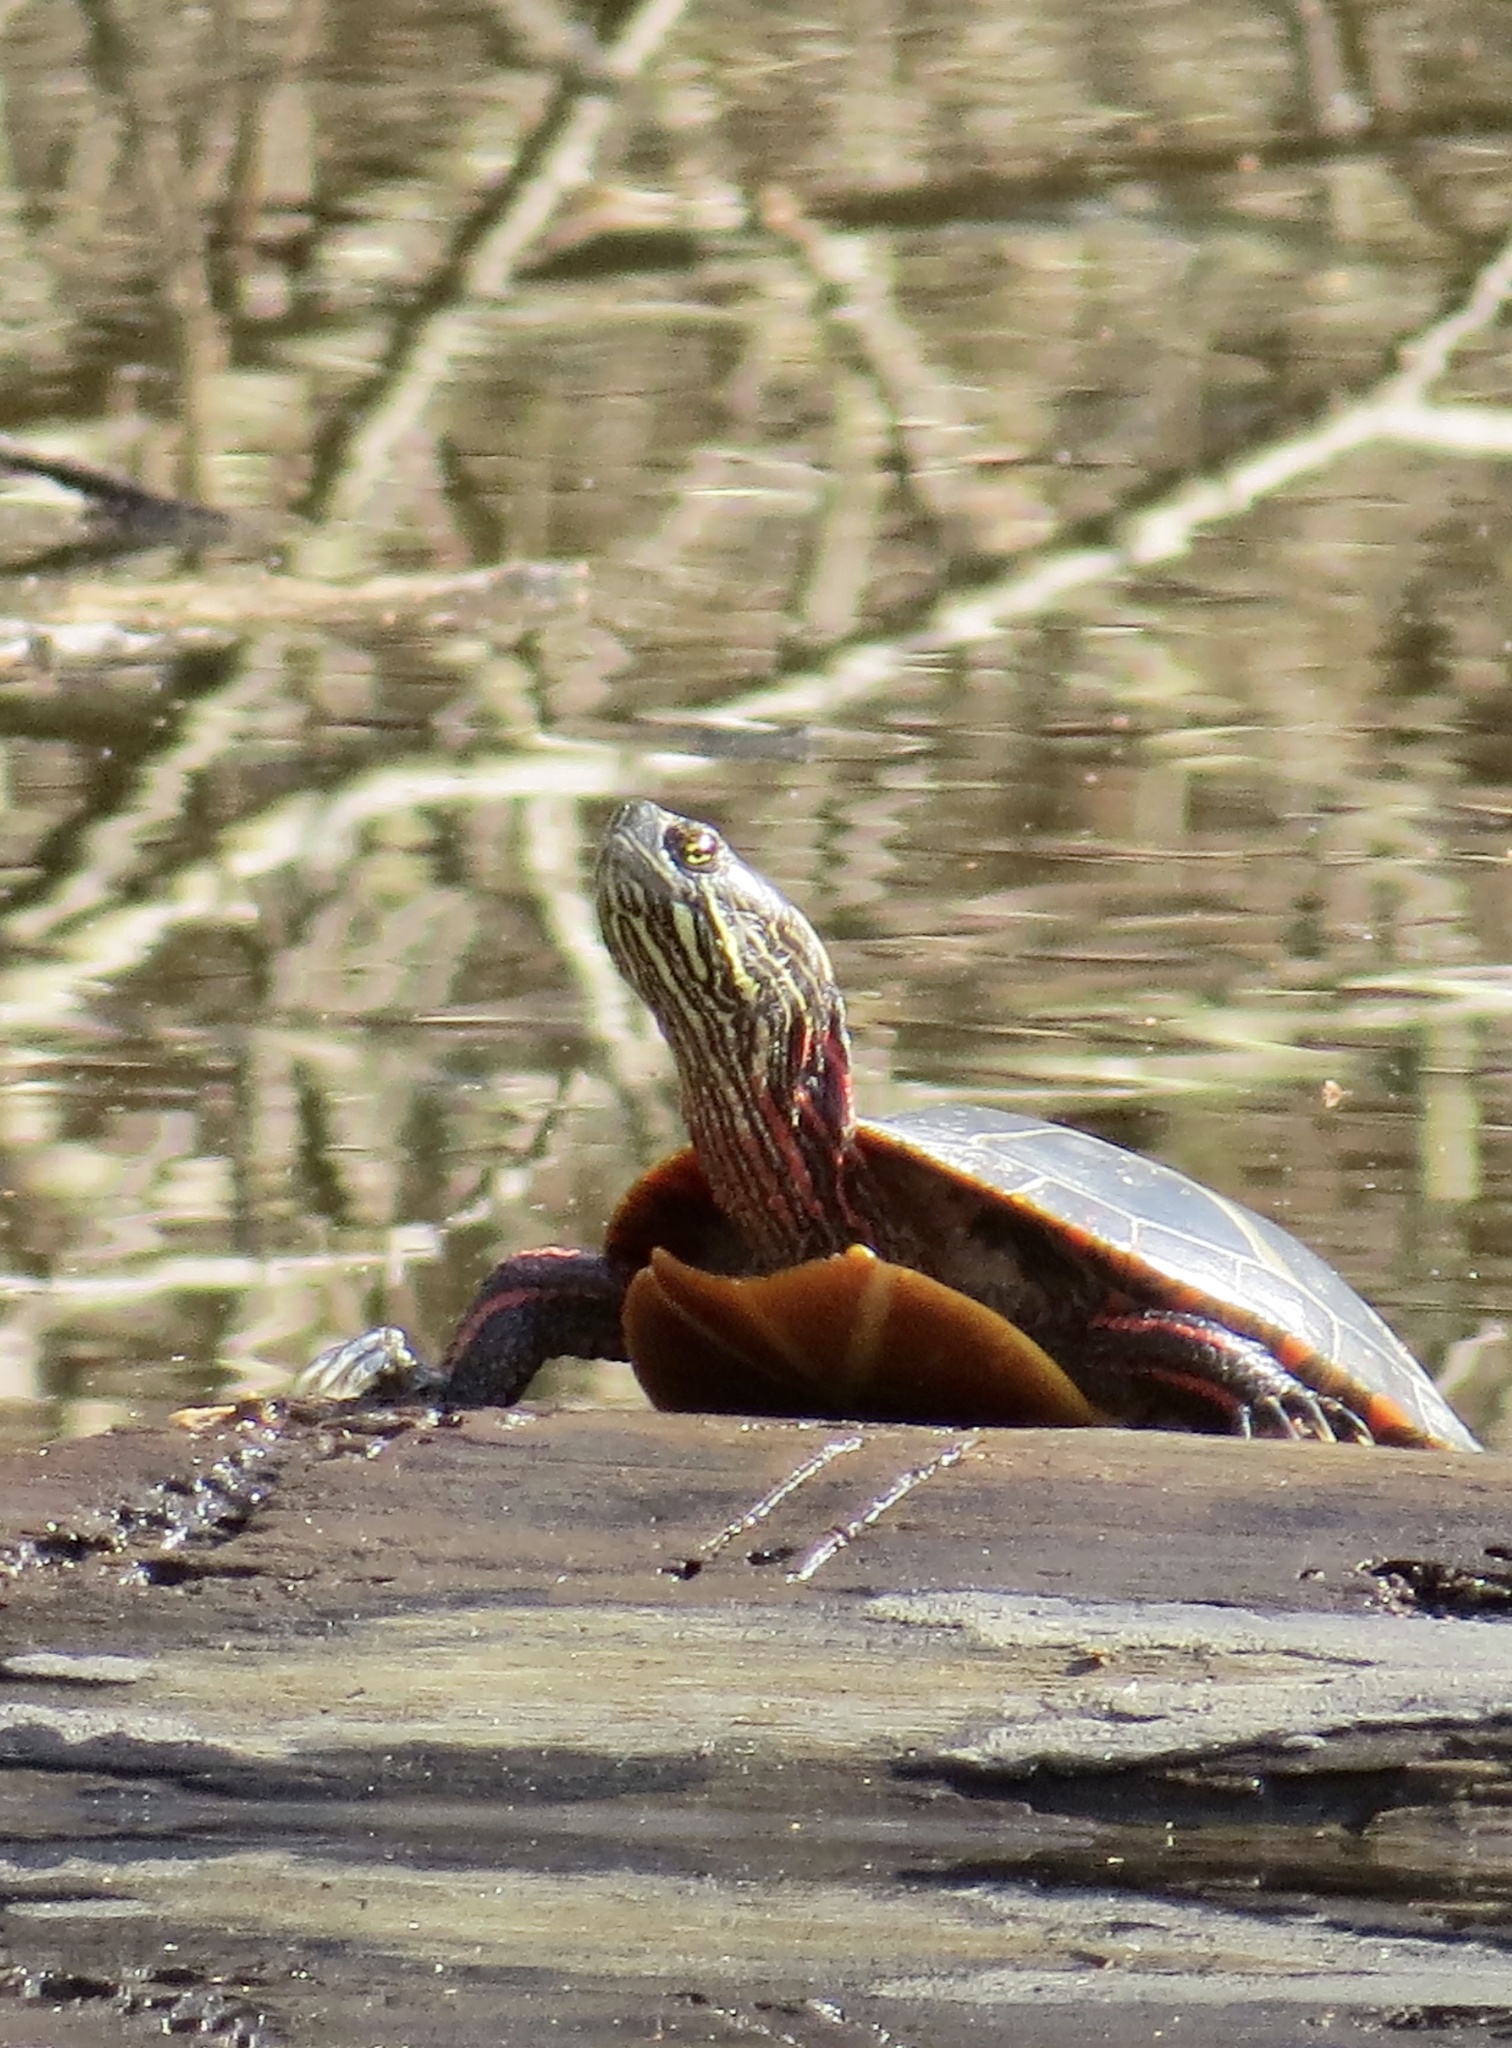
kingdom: Animalia
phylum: Chordata
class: Testudines
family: Emydidae
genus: Chrysemys
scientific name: Chrysemys picta
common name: Painted turtle
